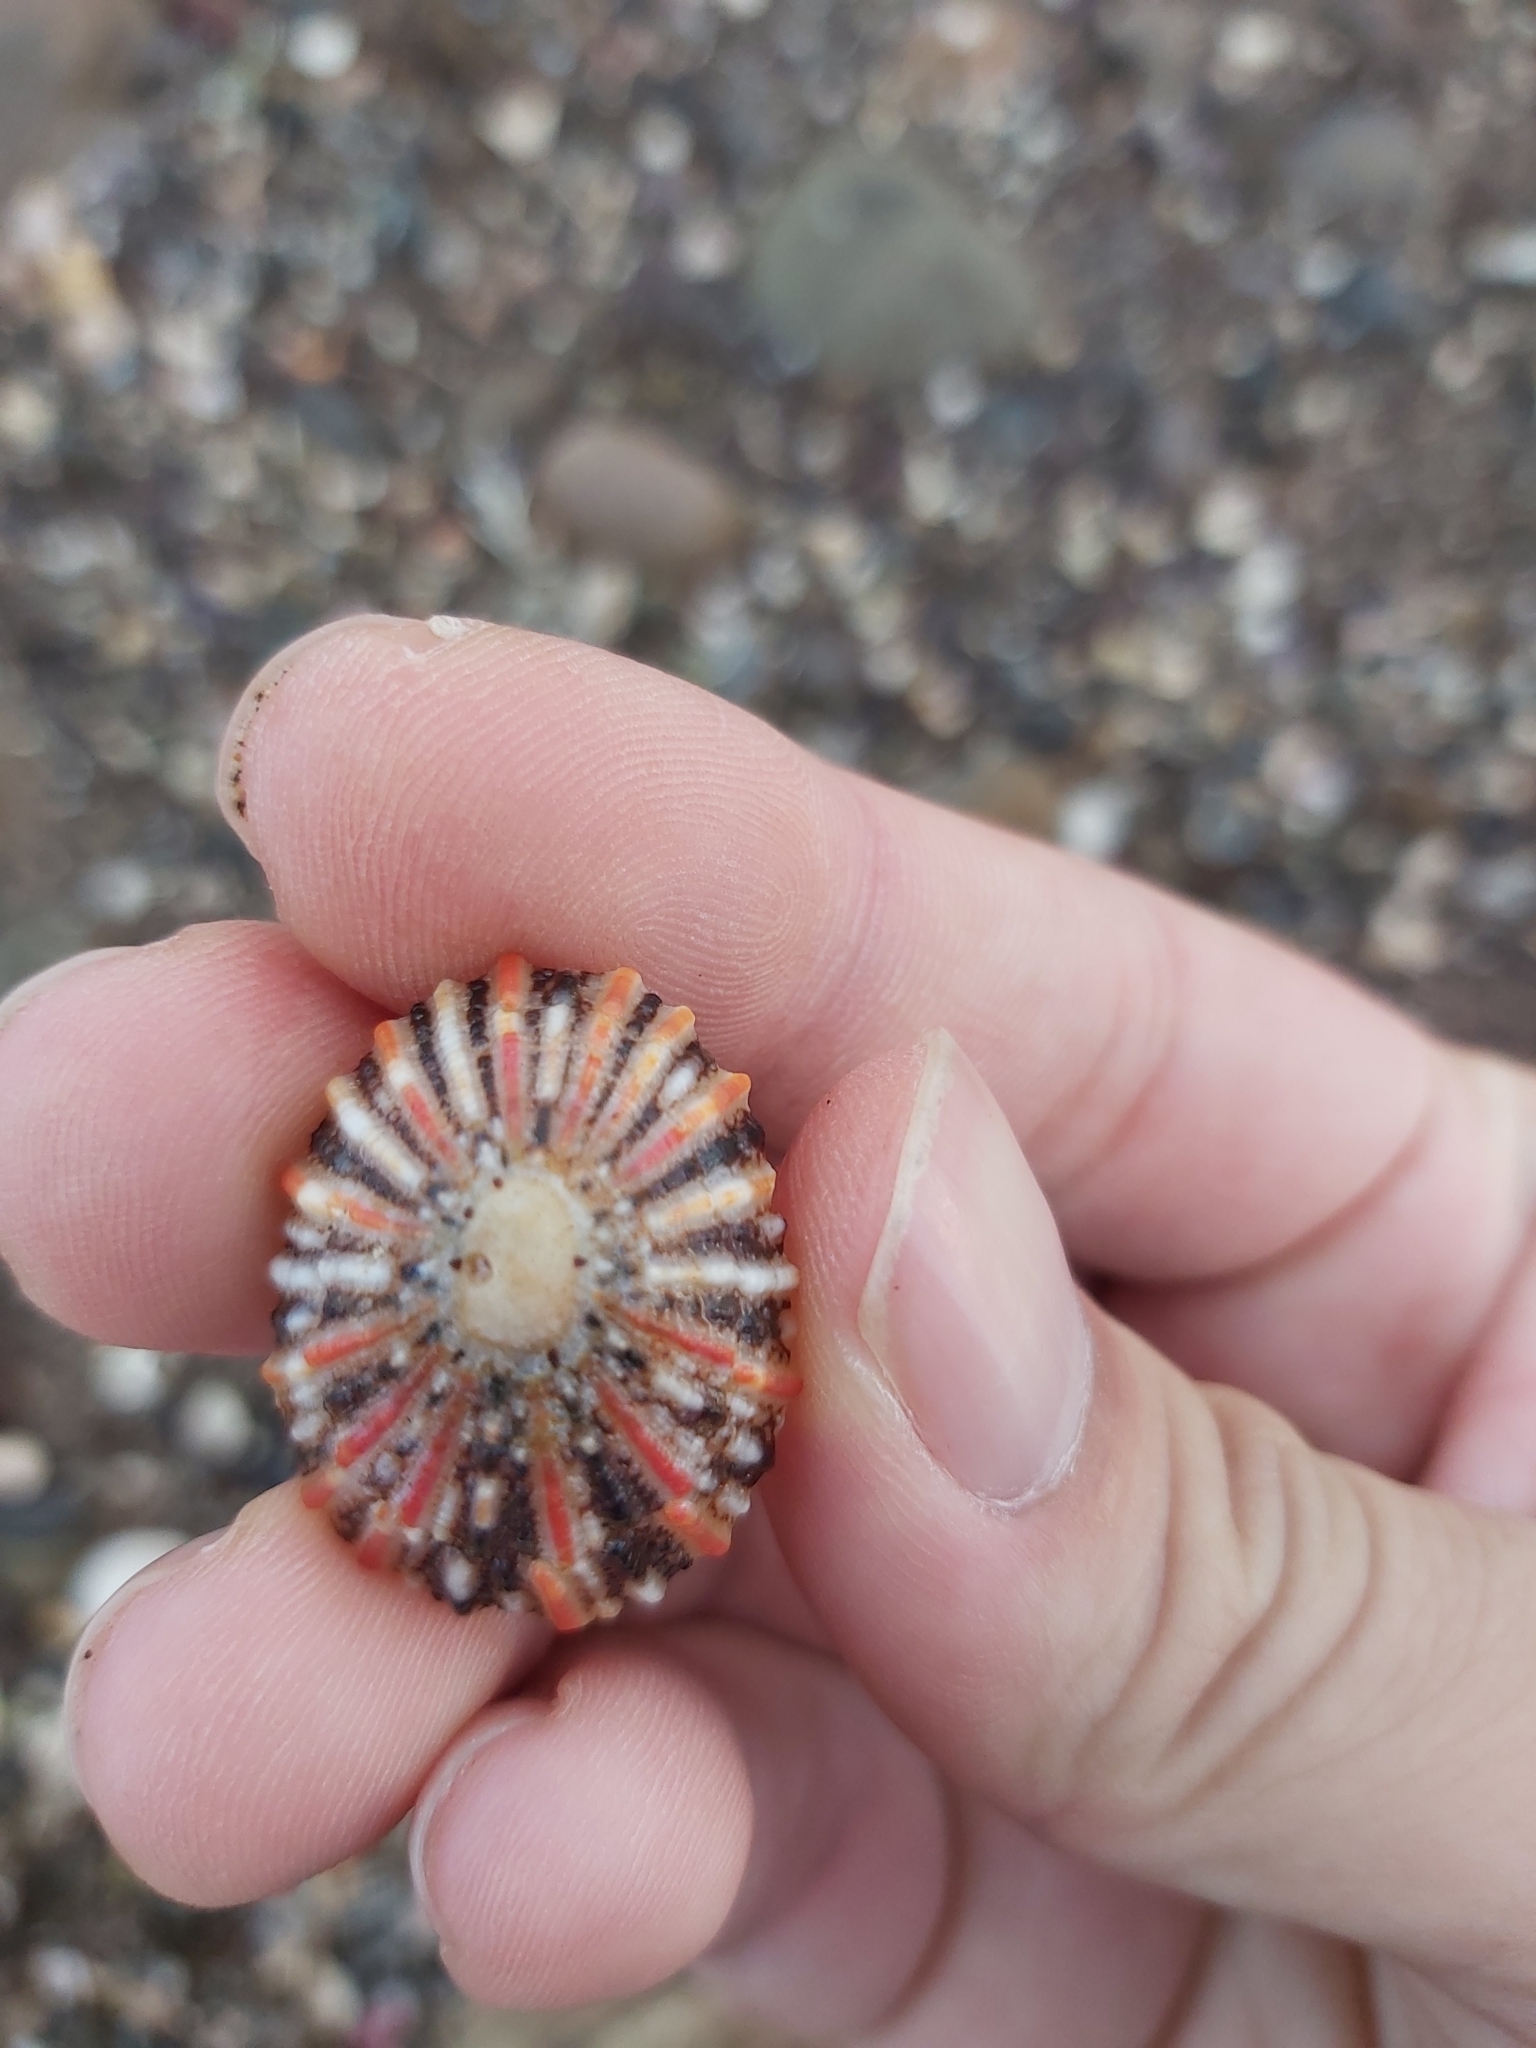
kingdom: Animalia
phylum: Mollusca
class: Gastropoda
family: Nacellidae
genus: Cellana
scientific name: Cellana tramoserica
